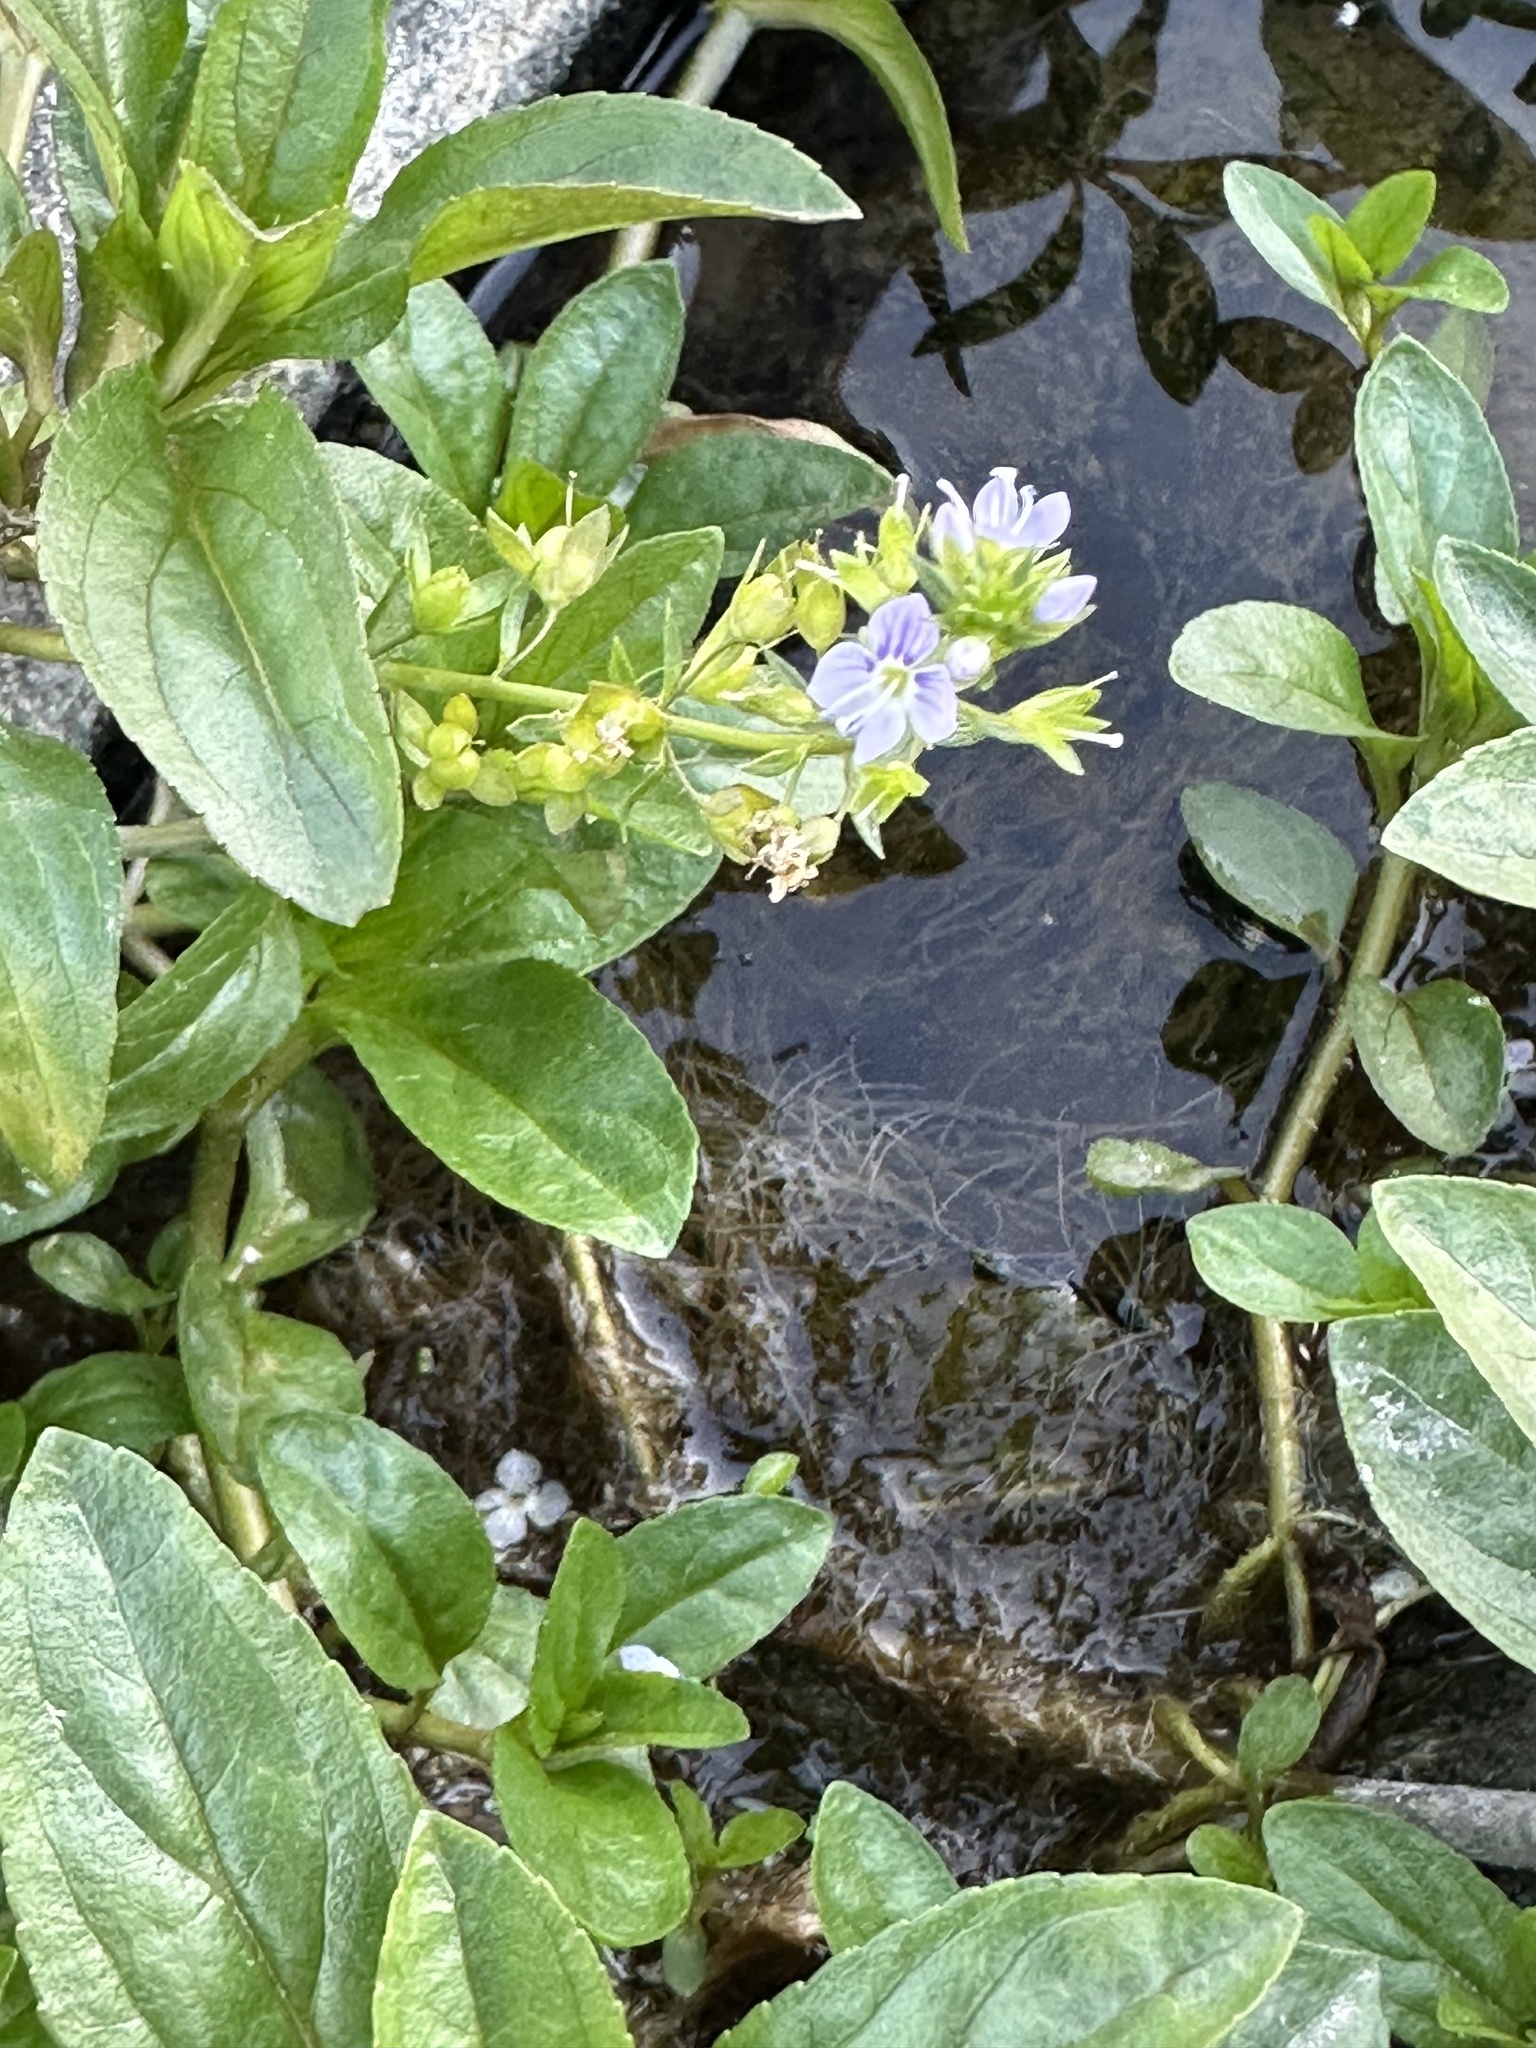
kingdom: Plantae
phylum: Tracheophyta
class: Magnoliopsida
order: Lamiales
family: Plantaginaceae
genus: Veronica
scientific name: Veronica anagallis-aquatica
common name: Water speedwell
